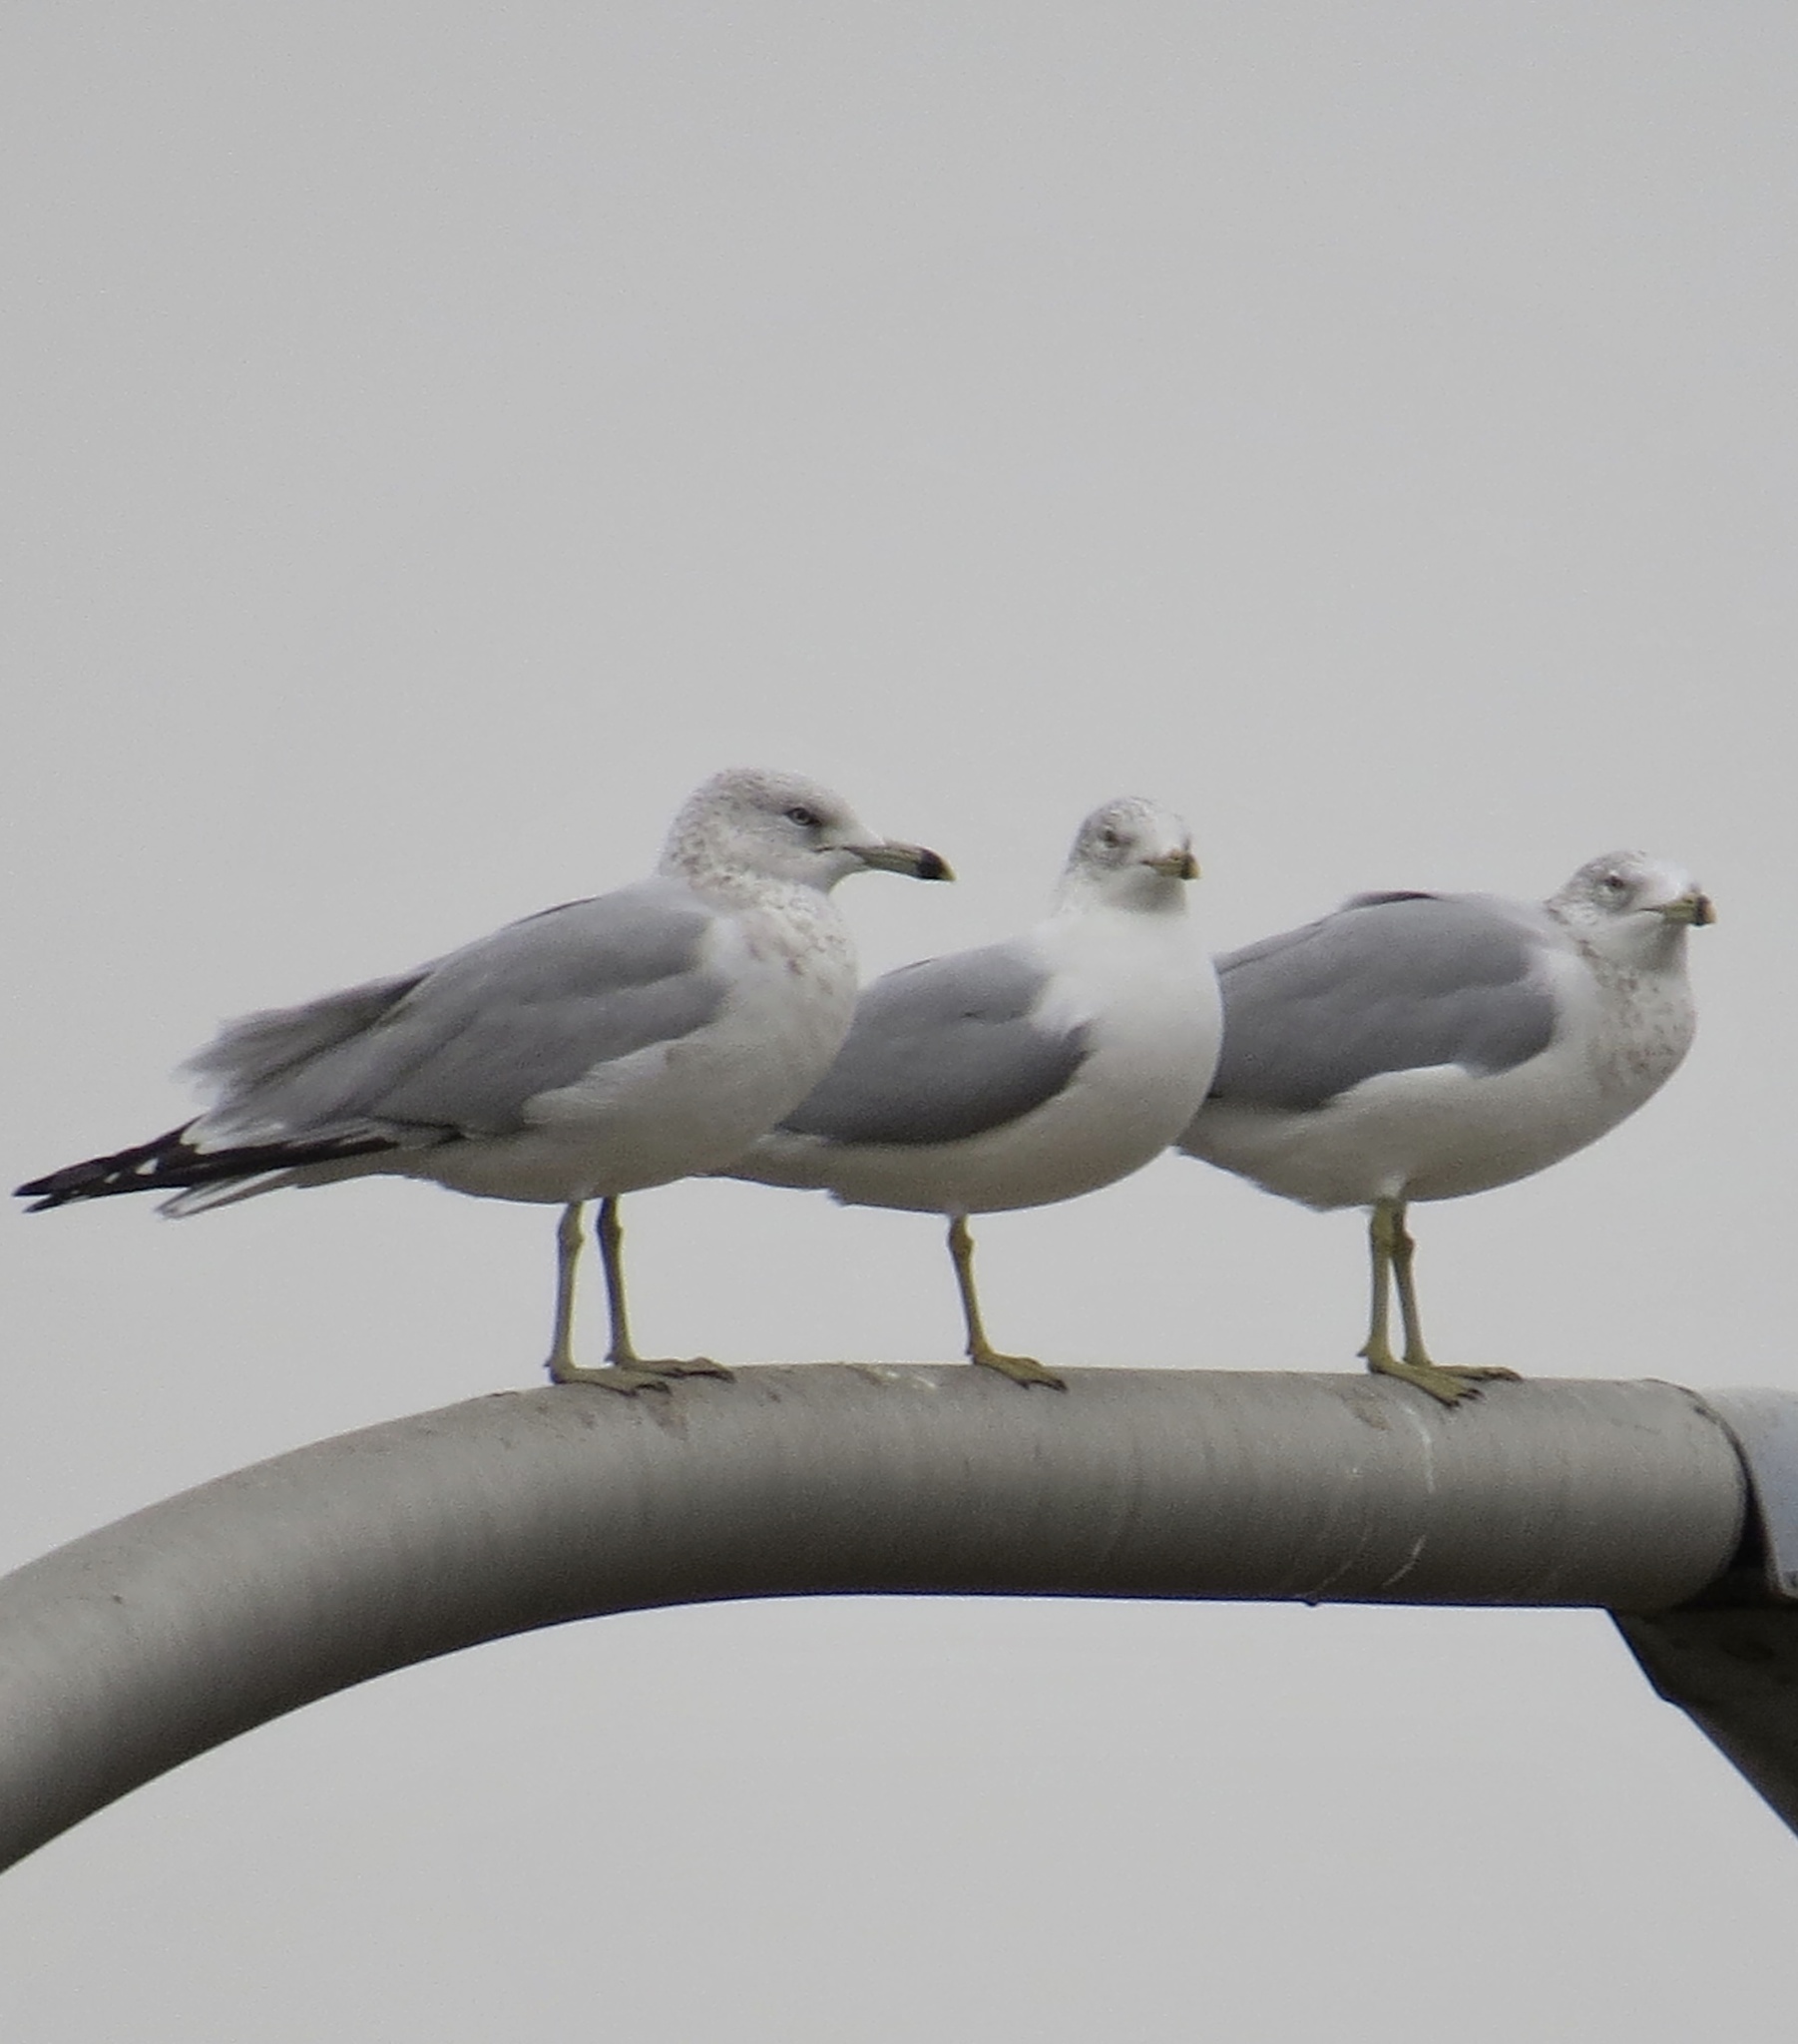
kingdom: Animalia
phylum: Chordata
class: Aves
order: Charadriiformes
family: Laridae
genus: Larus
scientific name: Larus delawarensis
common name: Ring-billed gull
